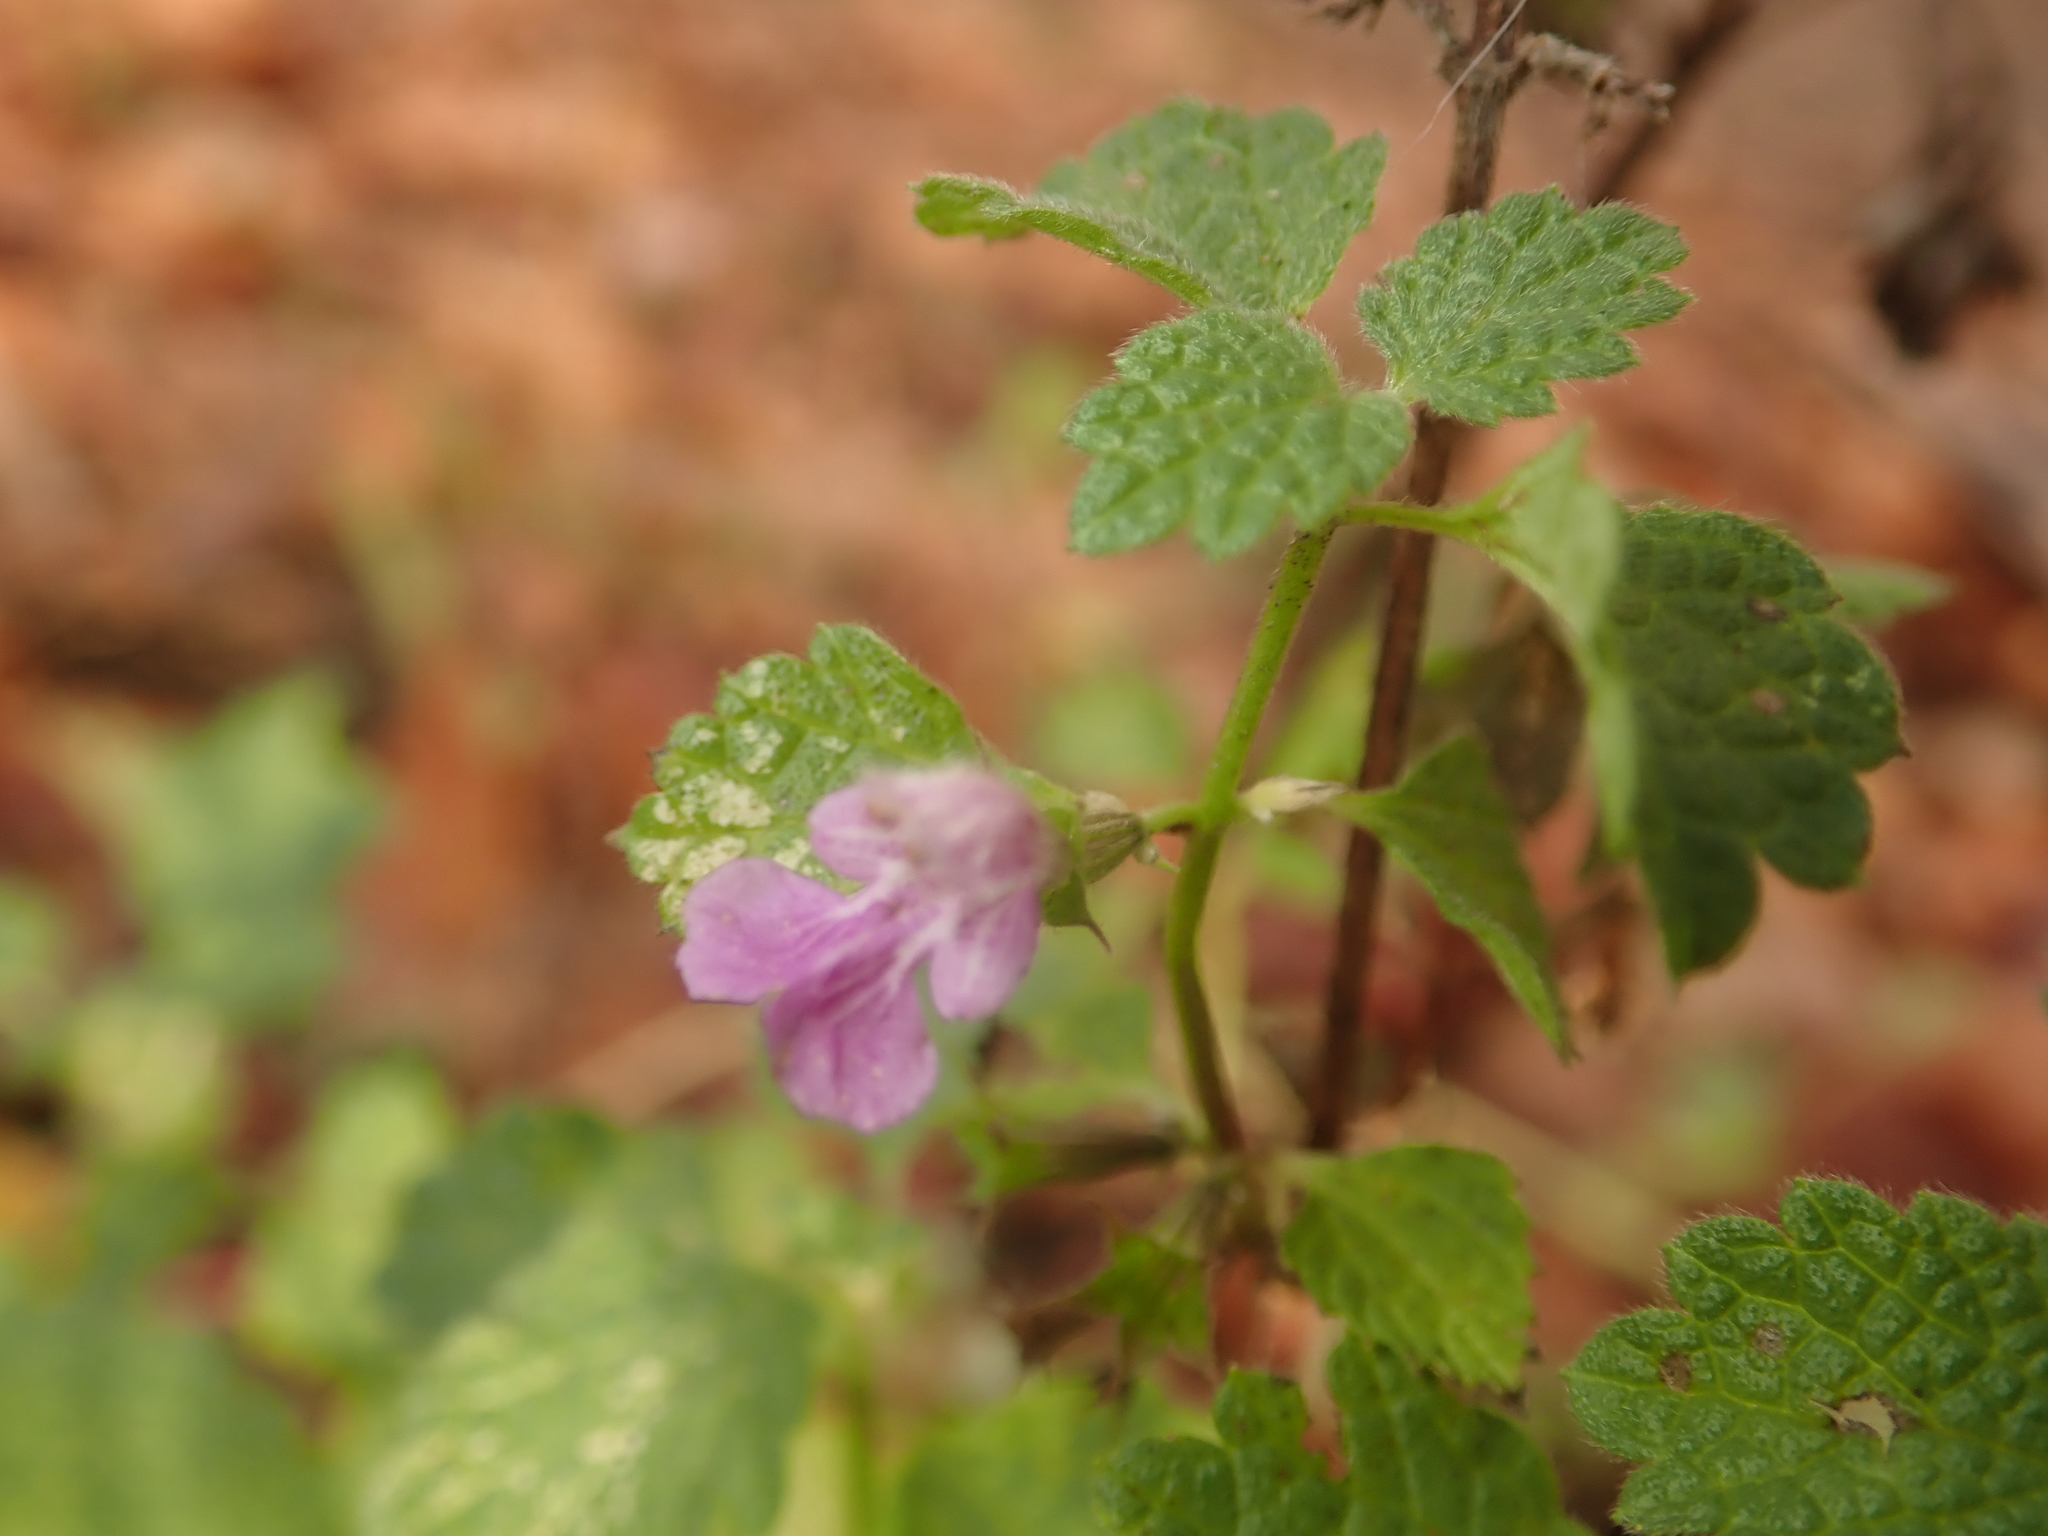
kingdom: Plantae
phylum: Tracheophyta
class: Magnoliopsida
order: Lamiales
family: Lamiaceae
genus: Ballota
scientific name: Ballota nigra
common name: Black horehound
